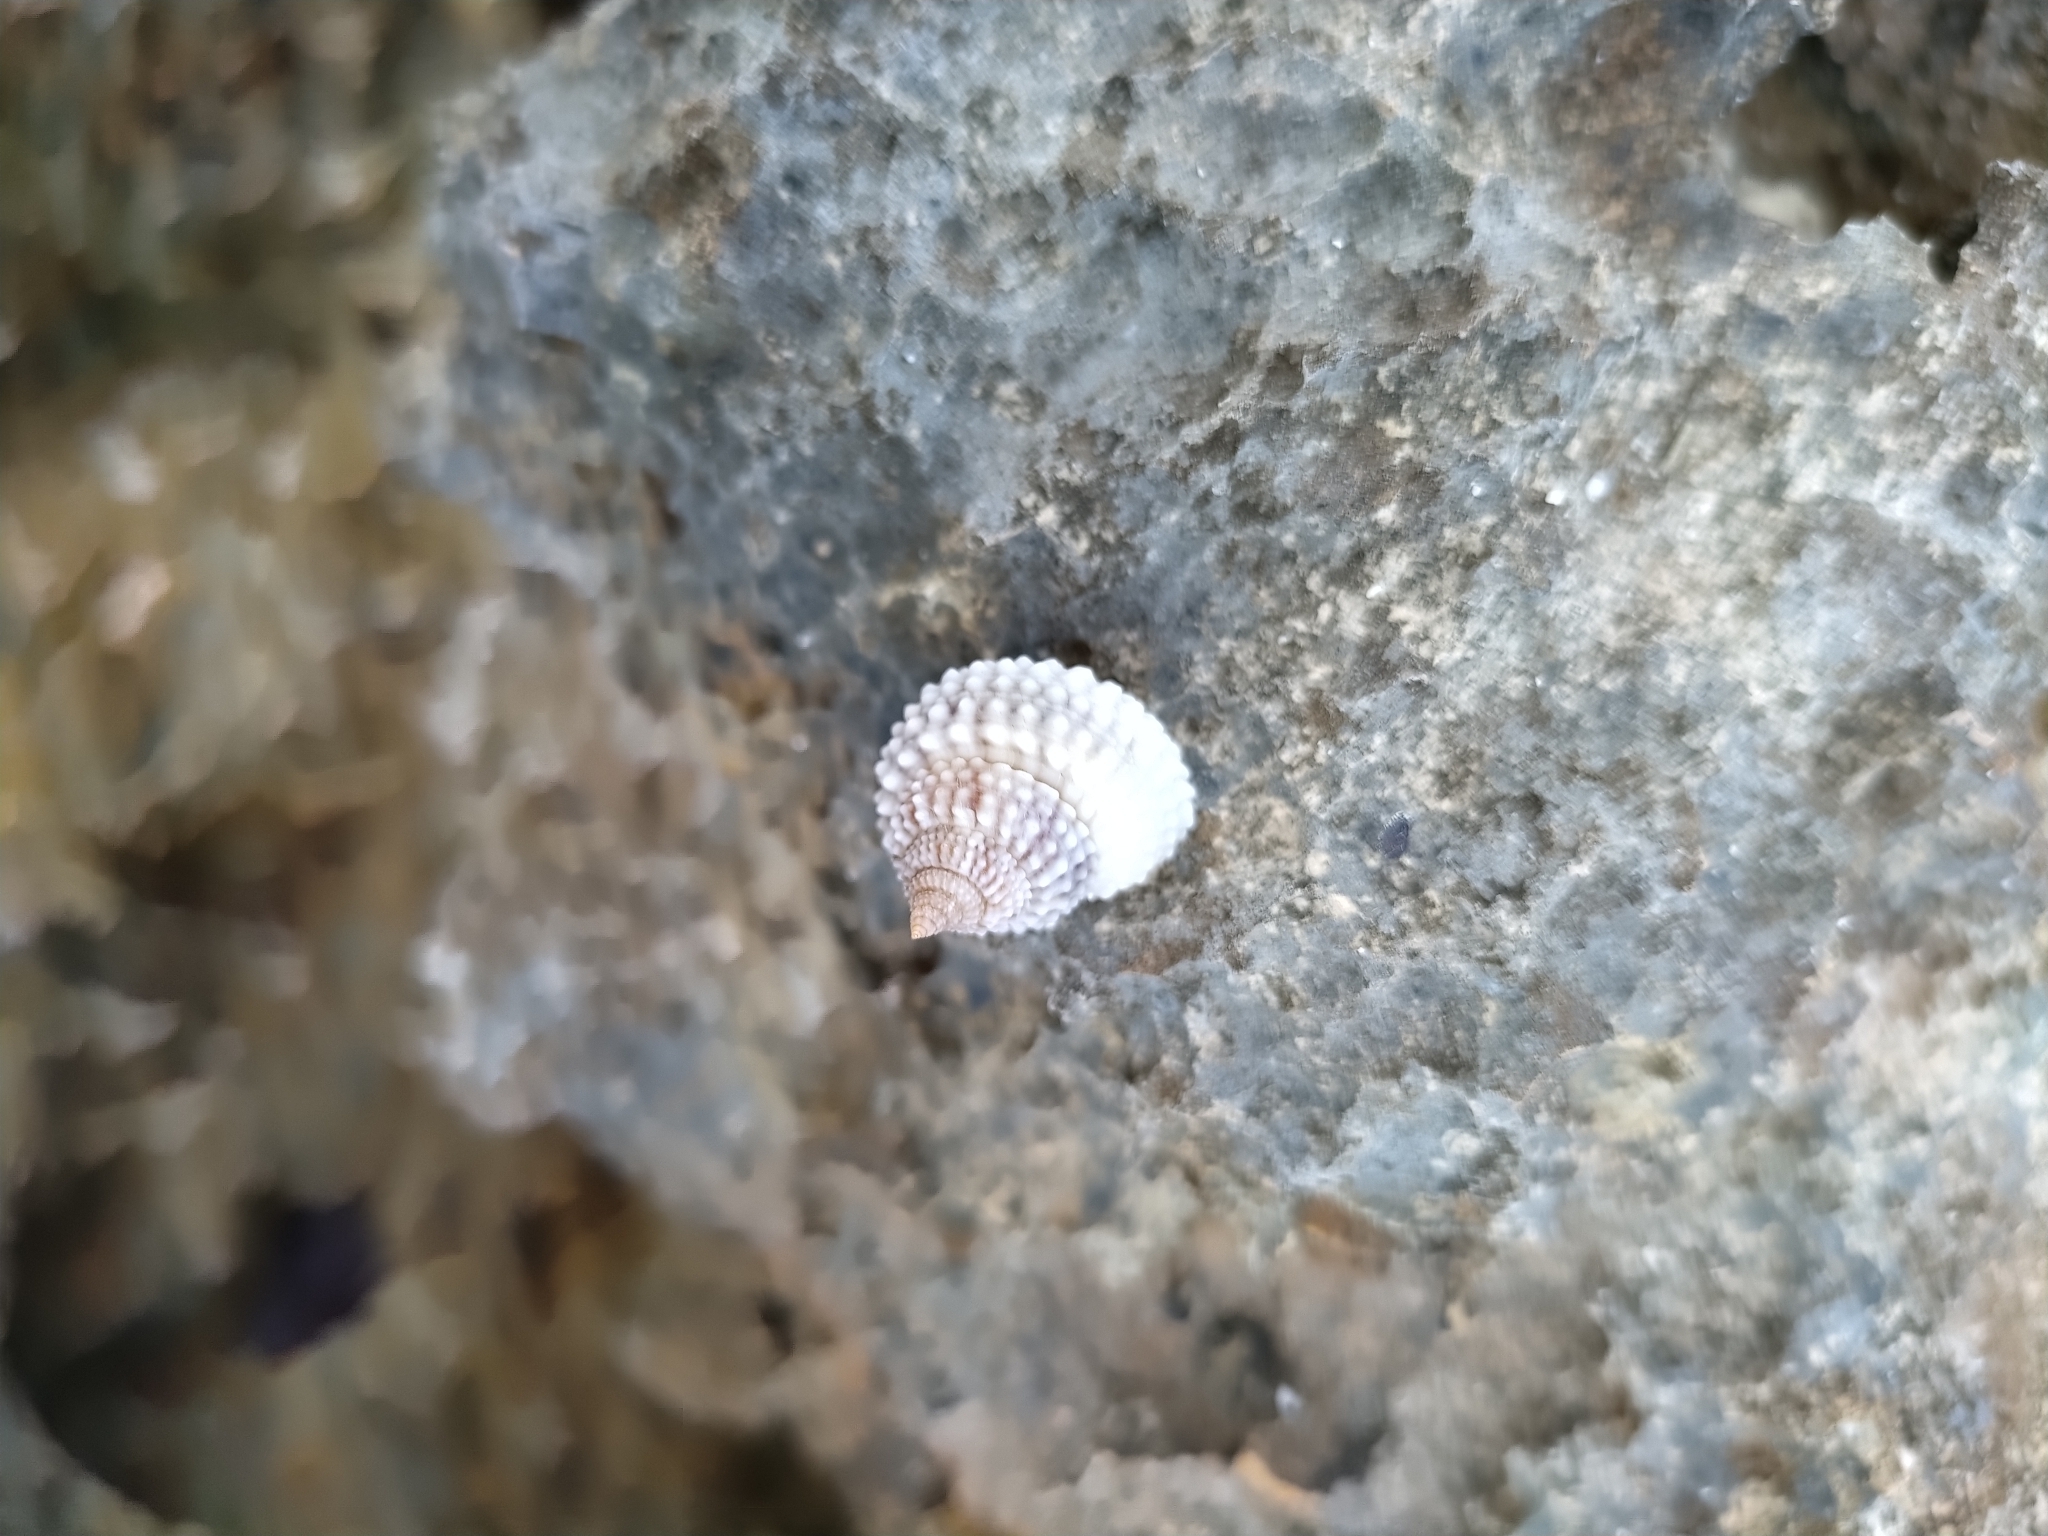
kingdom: Animalia
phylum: Mollusca
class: Gastropoda
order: Littorinimorpha
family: Littorinidae
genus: Cenchritis
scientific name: Cenchritis muricatus
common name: Beaded periwinkle
